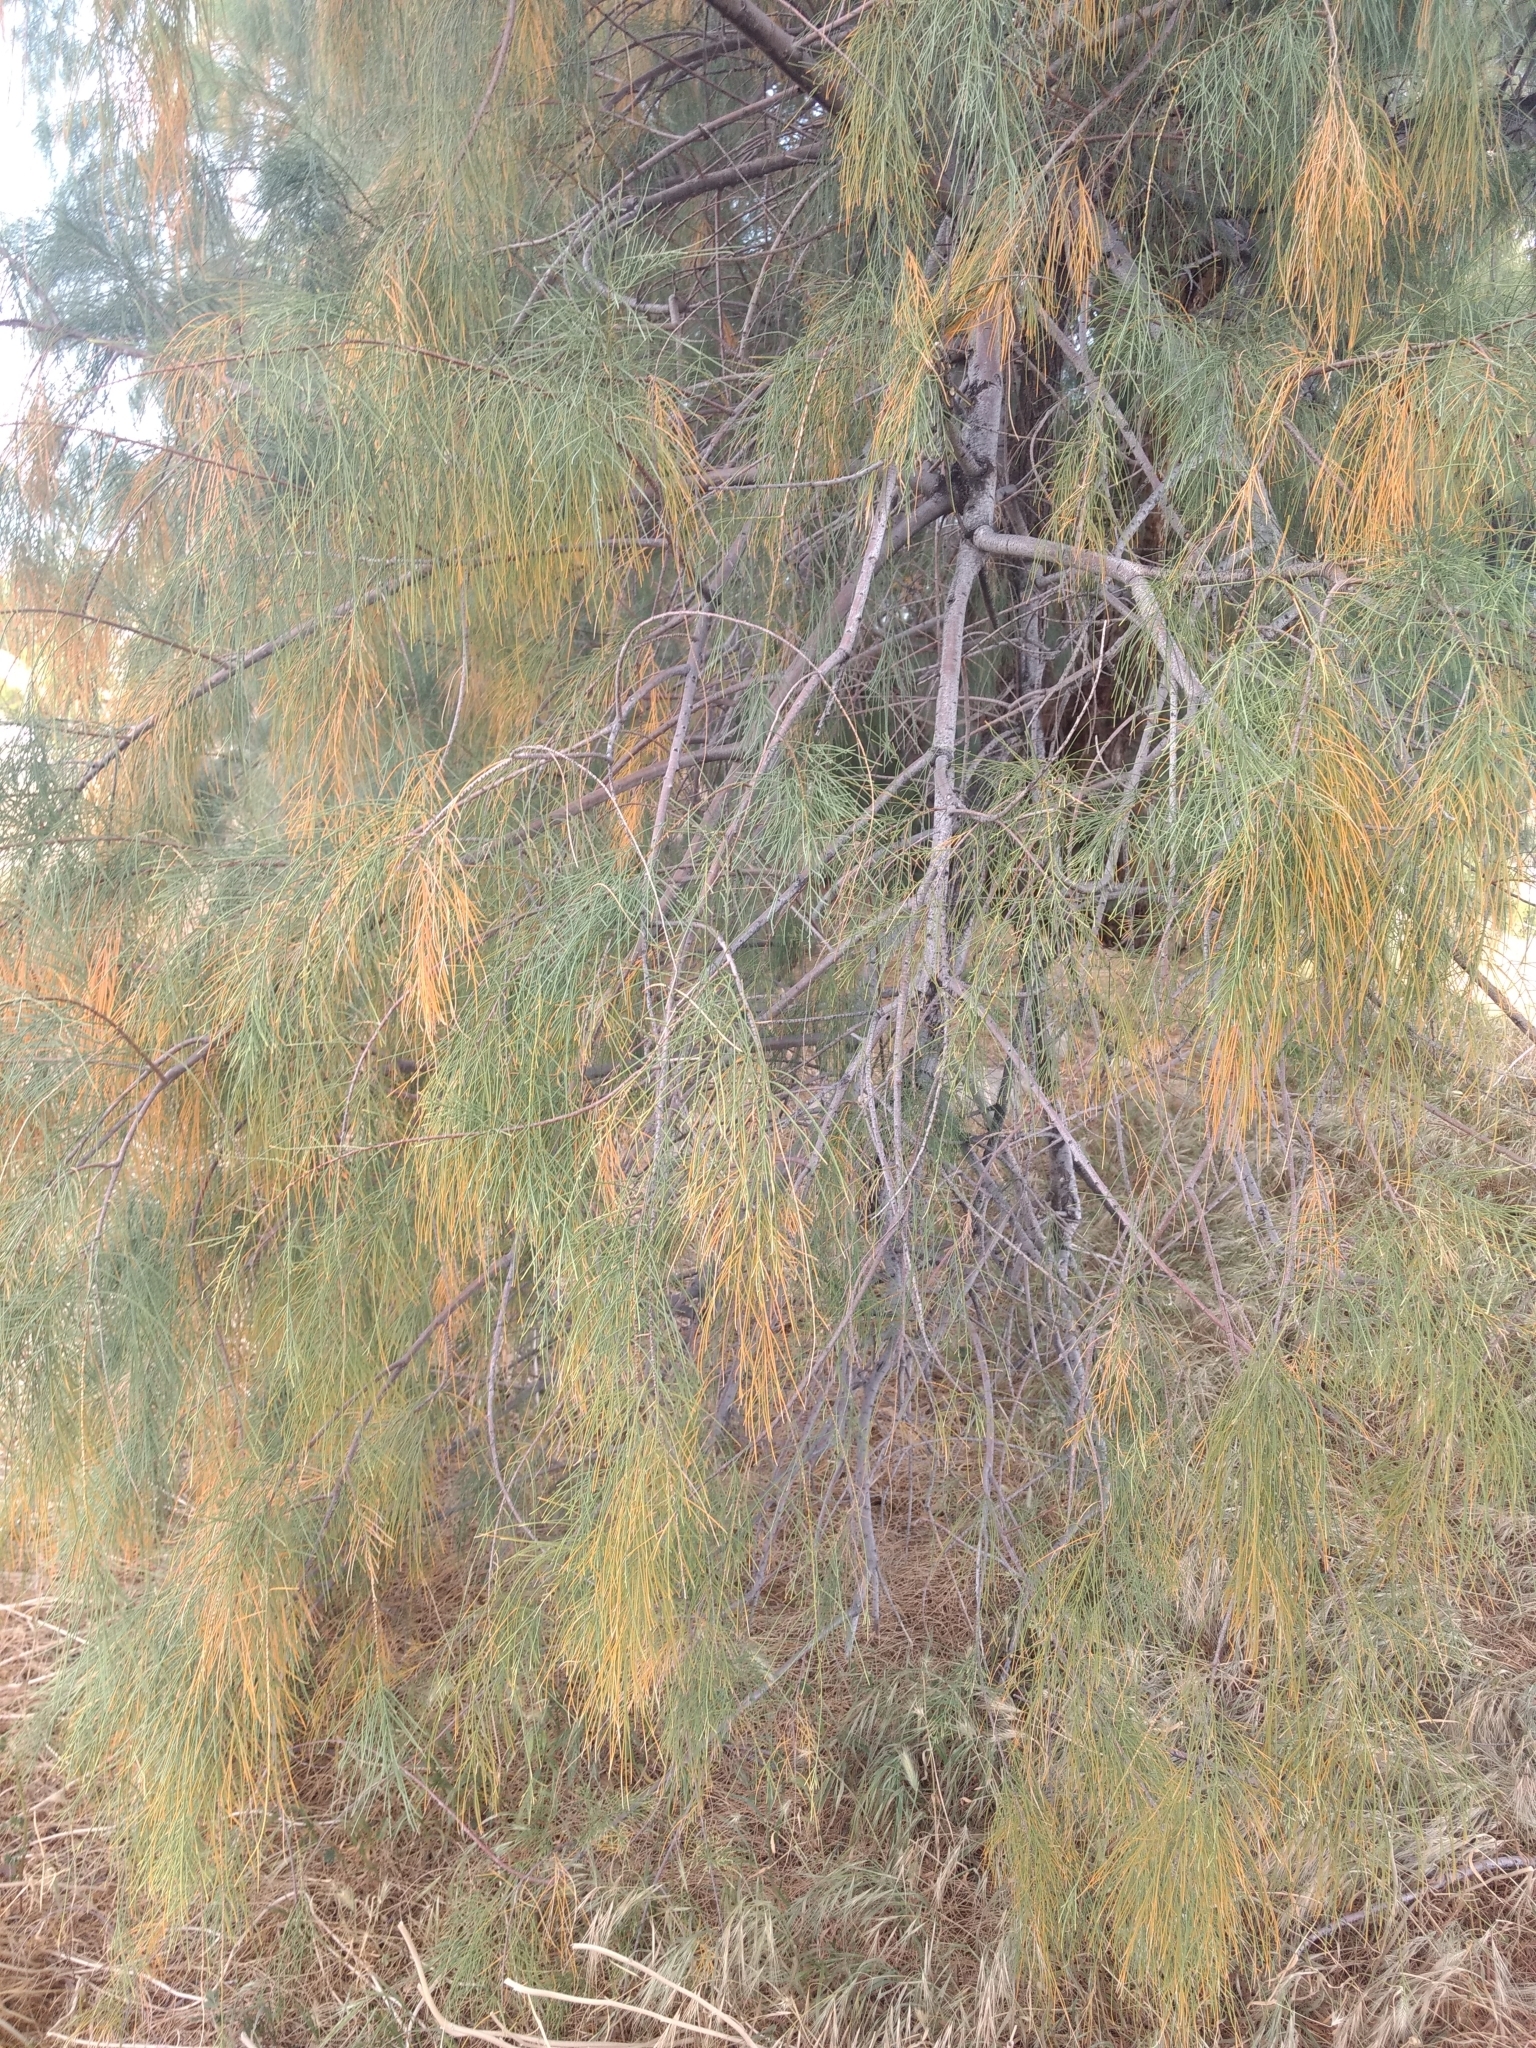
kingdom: Plantae
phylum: Tracheophyta
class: Magnoliopsida
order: Caryophyllales
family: Tamaricaceae
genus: Tamarix
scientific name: Tamarix aphylla
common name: Athel tamarisk
